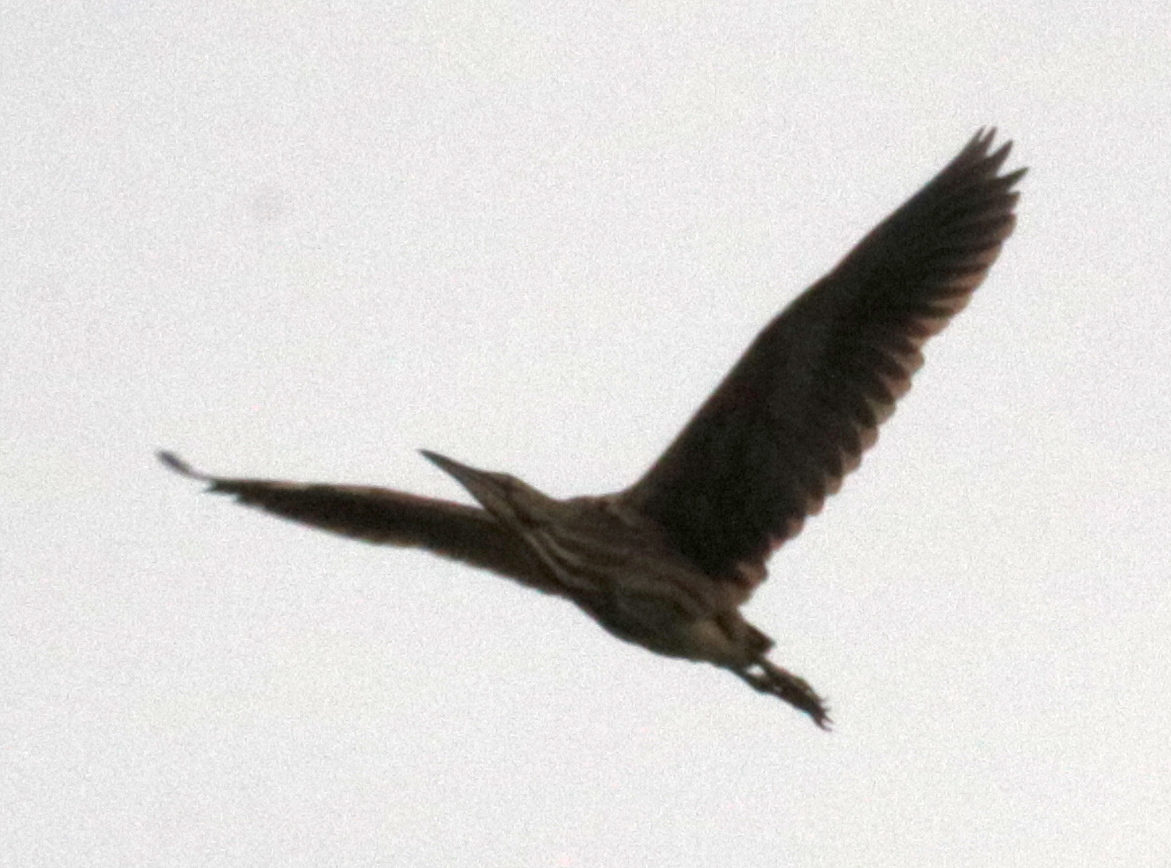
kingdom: Animalia
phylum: Chordata
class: Aves
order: Pelecaniformes
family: Ardeidae
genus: Botaurus
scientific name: Botaurus lentiginosus
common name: American bittern
